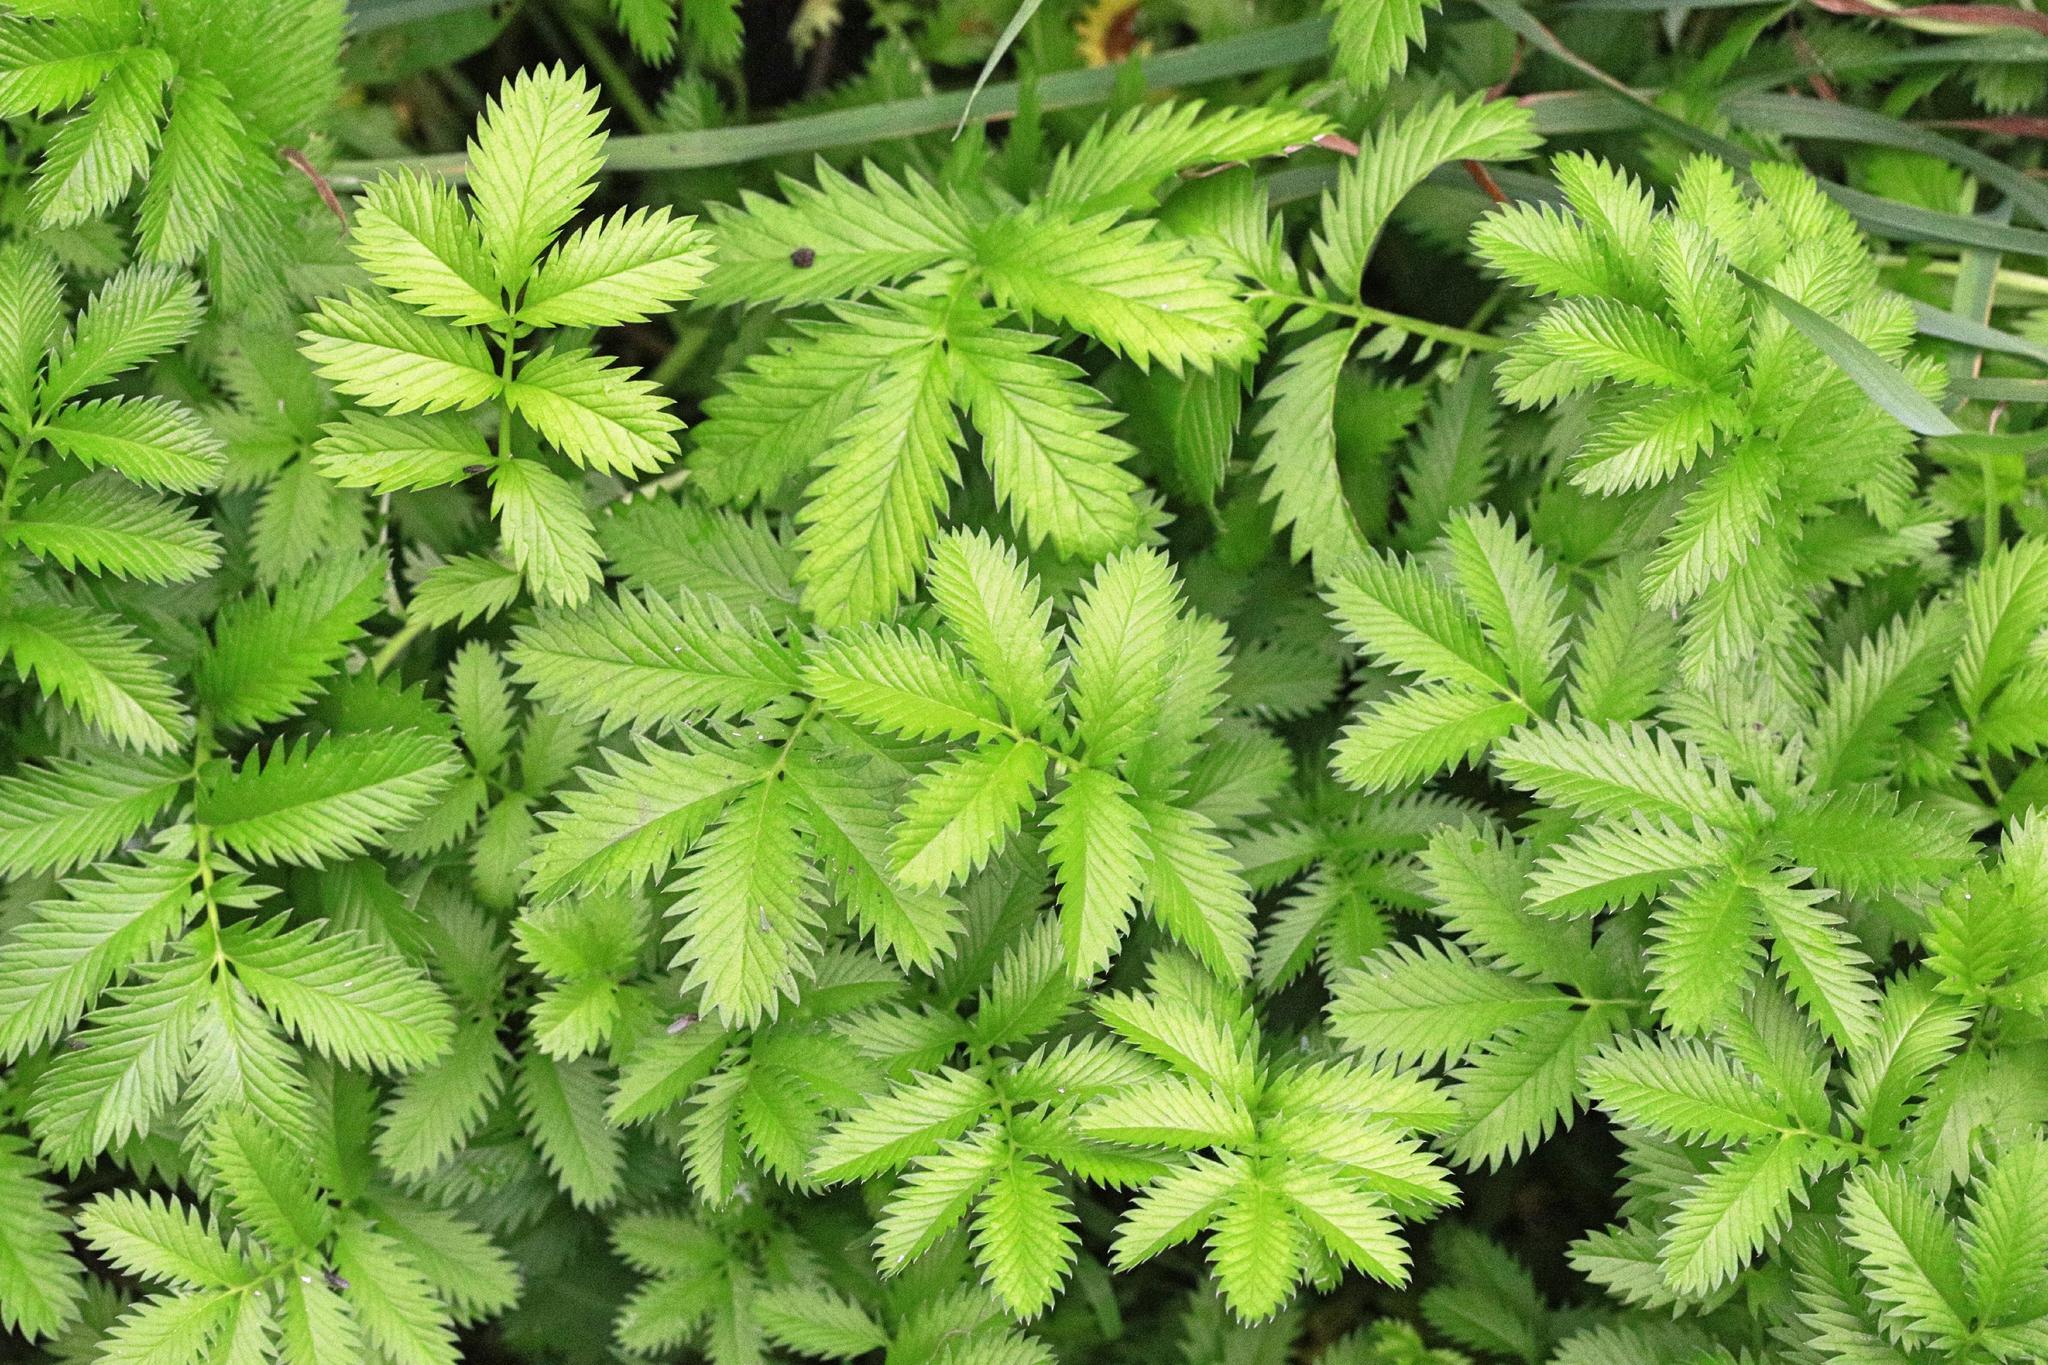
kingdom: Plantae
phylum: Tracheophyta
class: Magnoliopsida
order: Rosales
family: Rosaceae
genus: Argentina
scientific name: Argentina anserina
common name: Common silverweed
